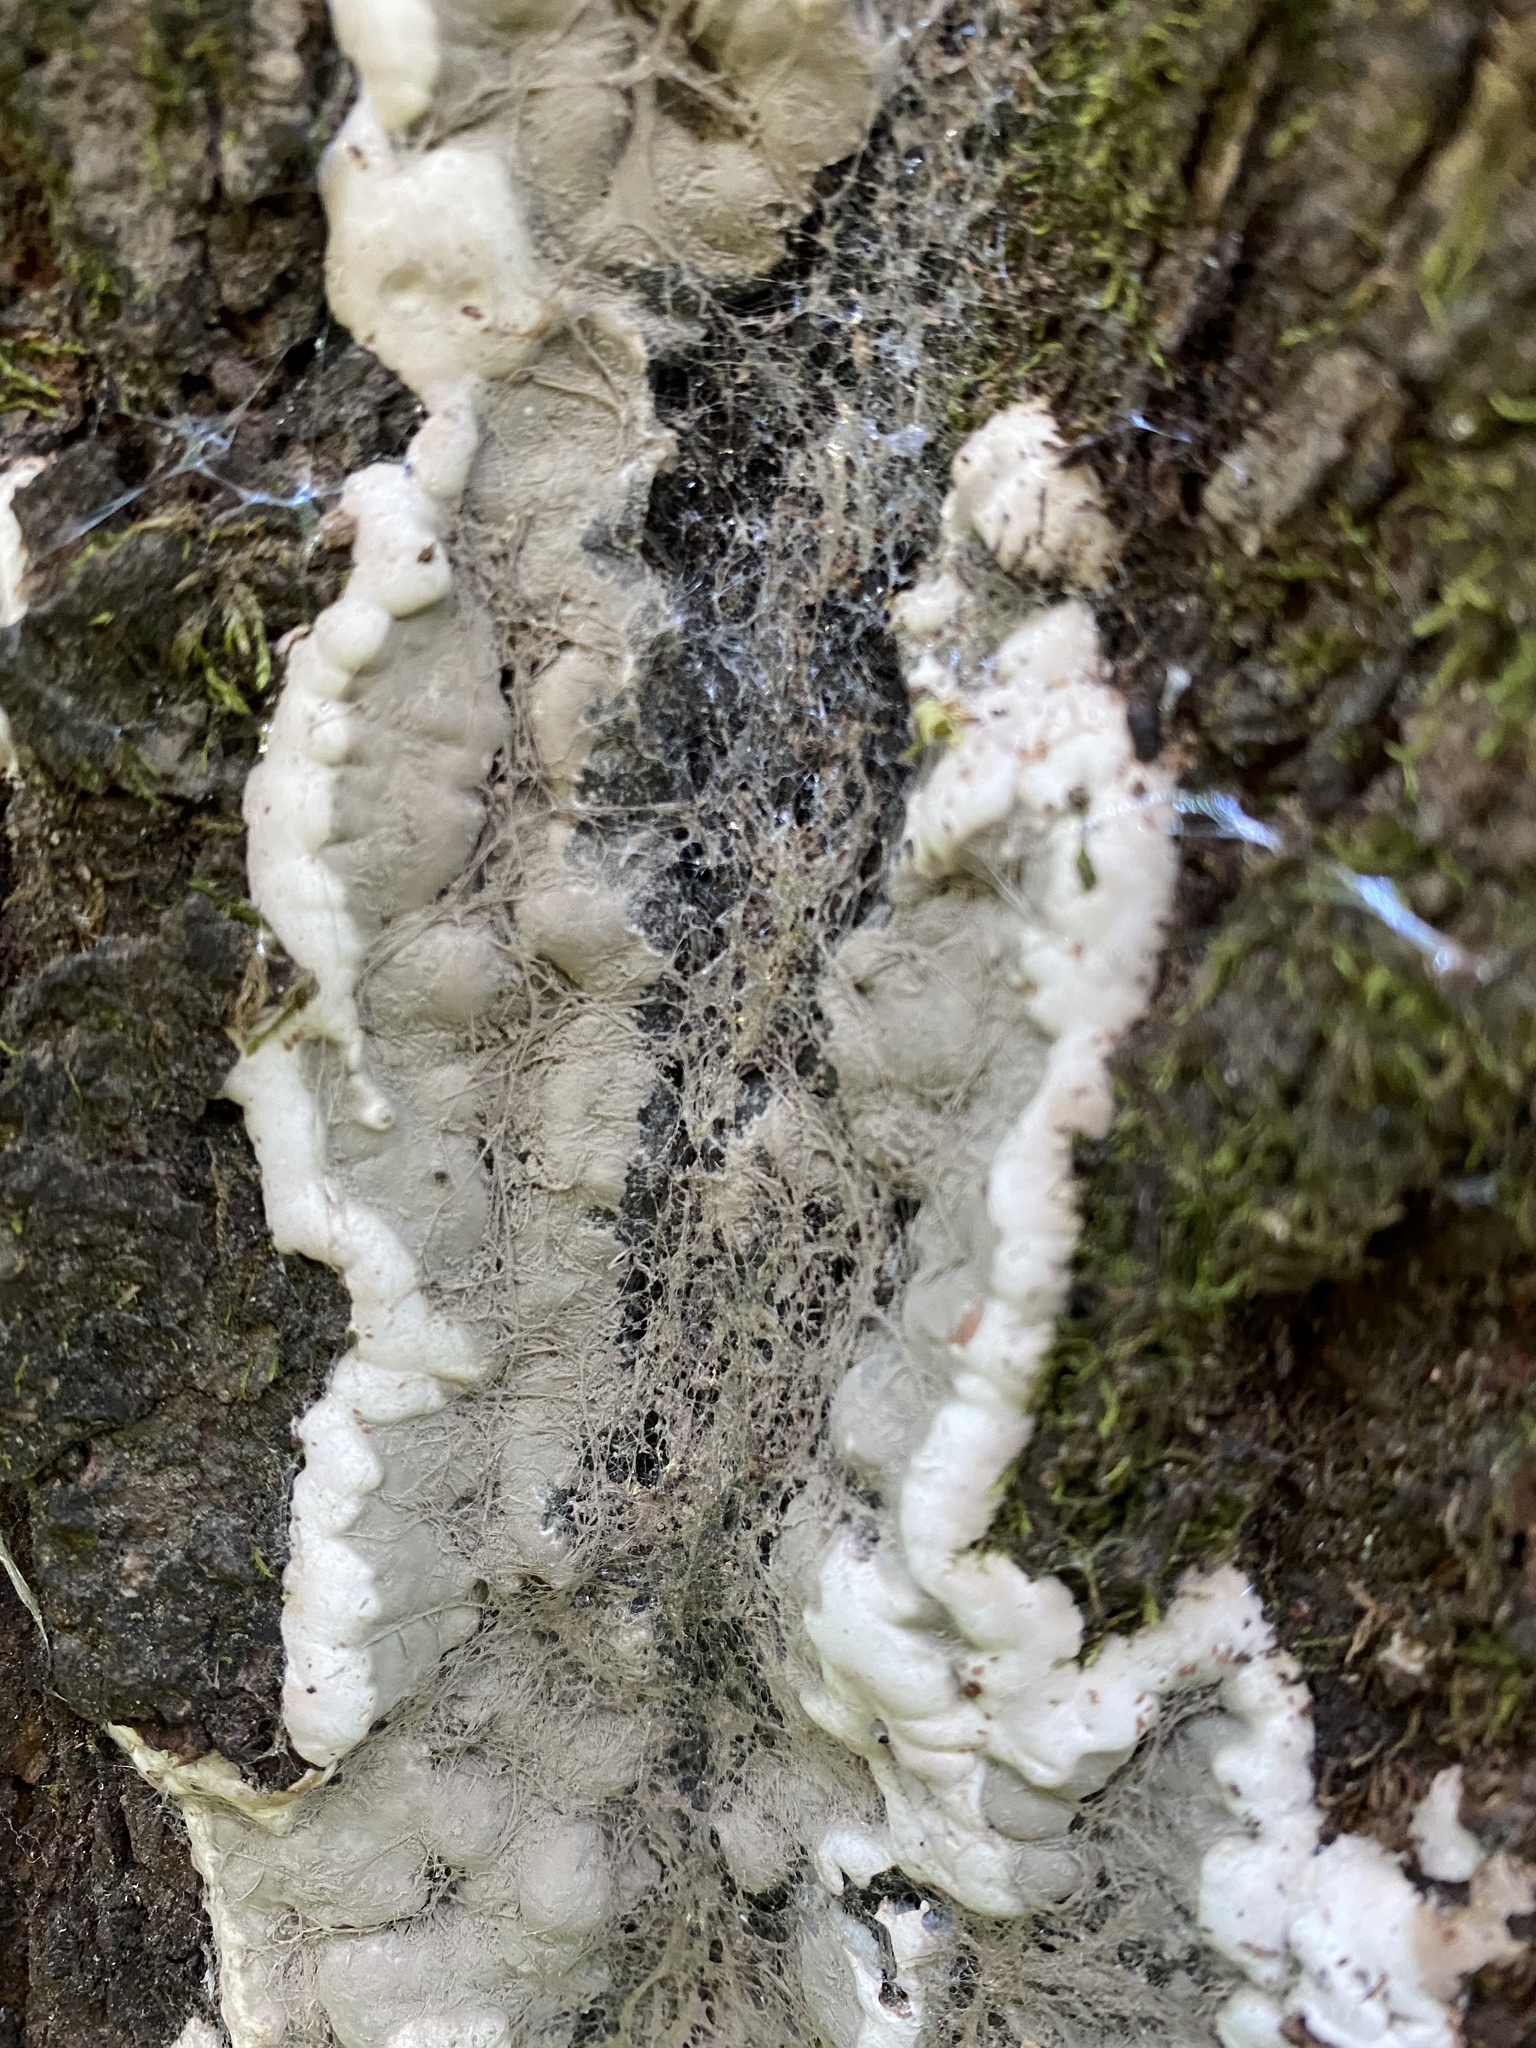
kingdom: Fungi
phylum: Ascomycota
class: Sordariomycetes
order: Xylariales
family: Xylariaceae
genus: Kretzschmaria
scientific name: Kretzschmaria deusta
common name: Brittle cinder
